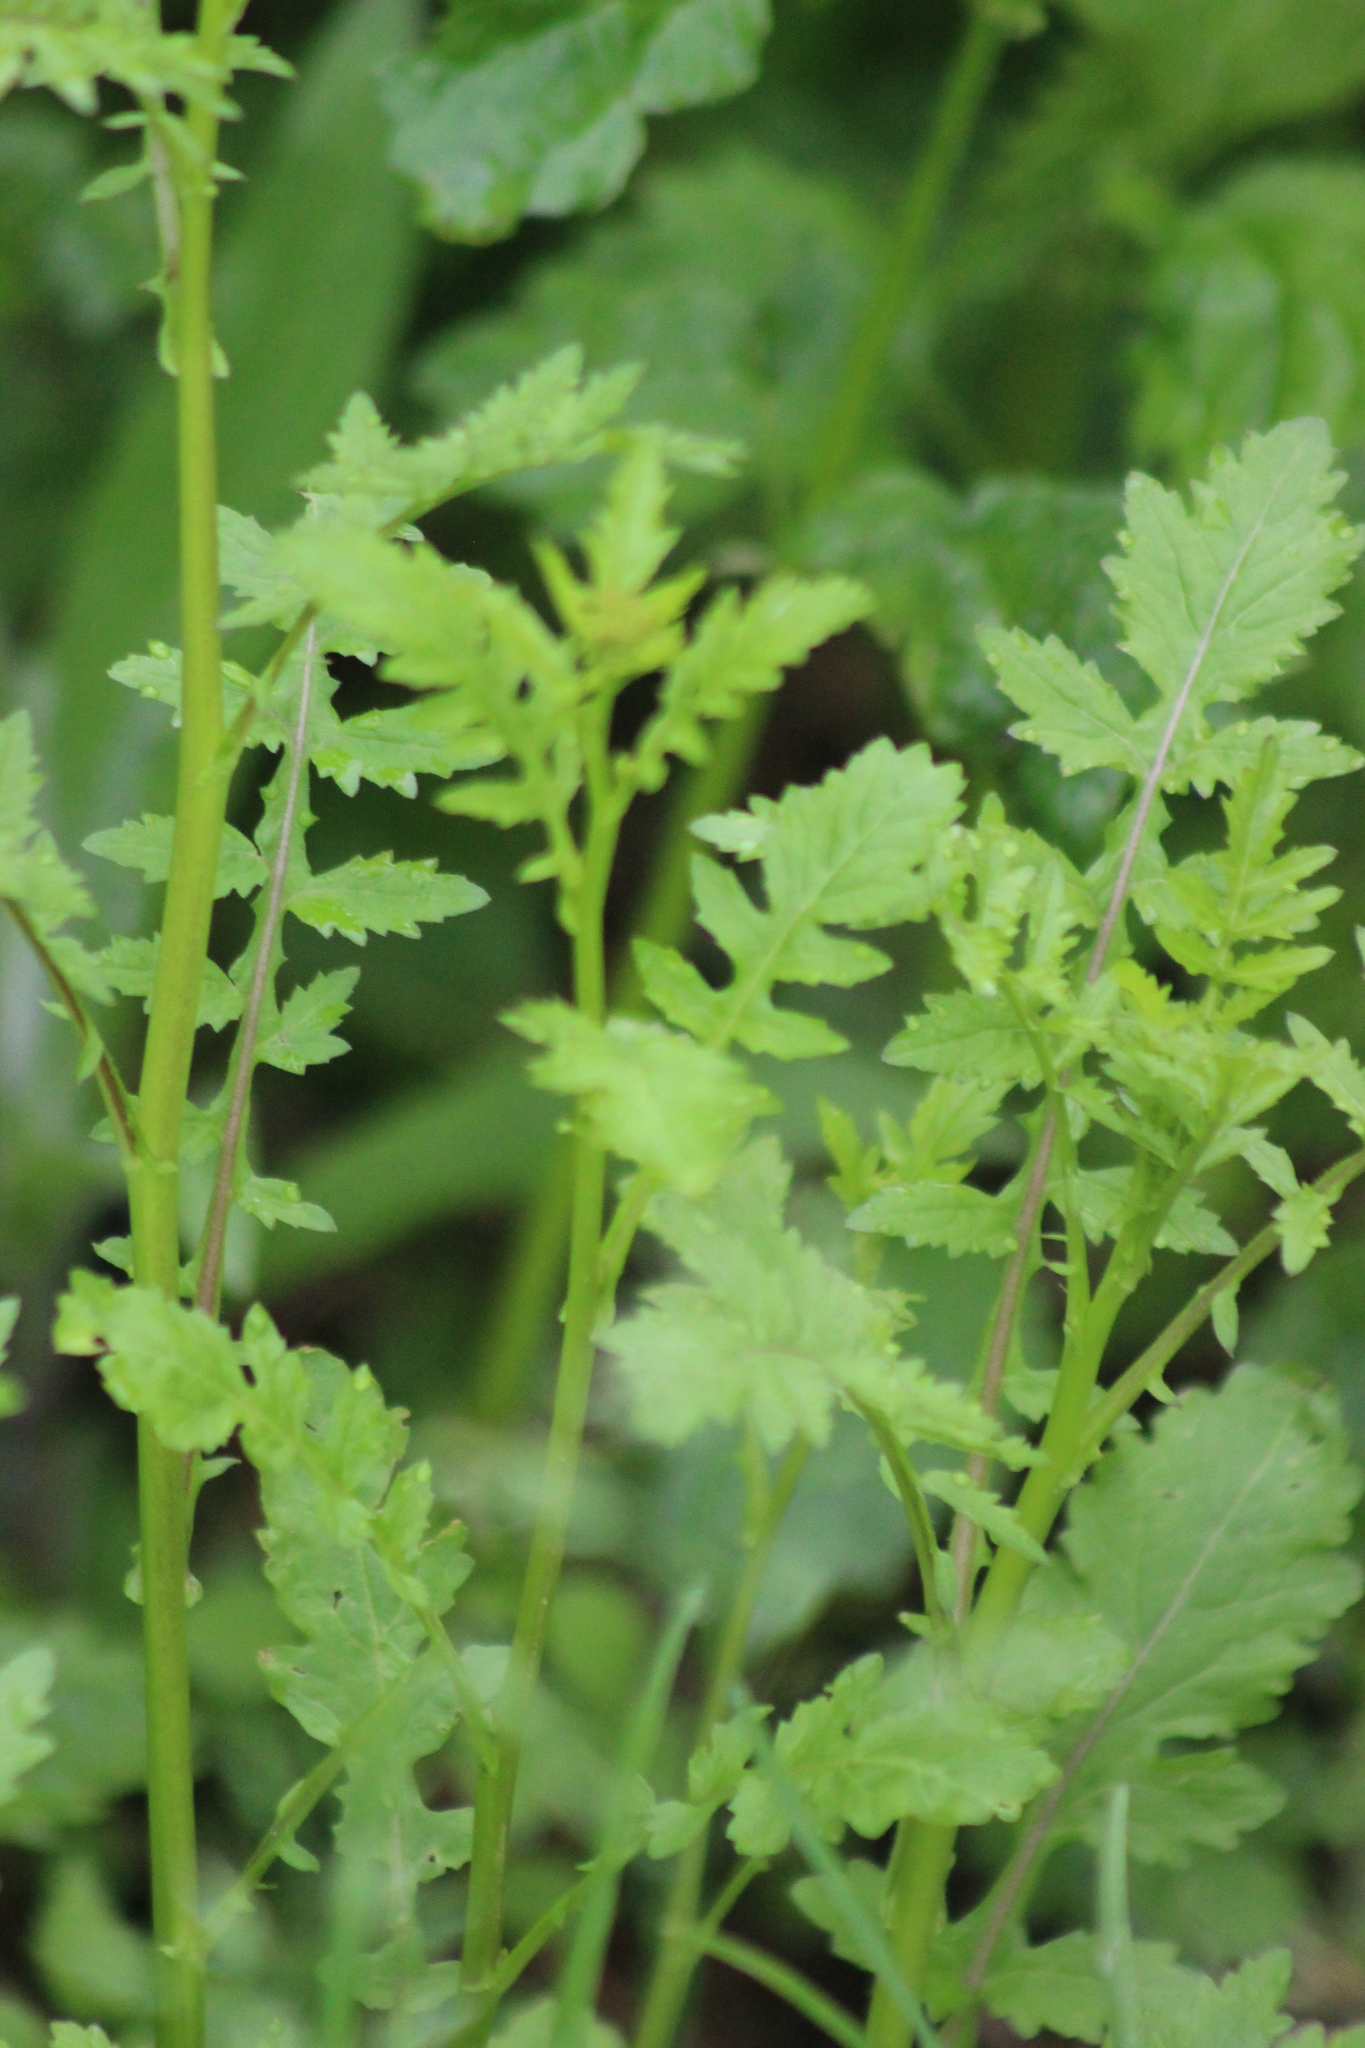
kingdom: Plantae
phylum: Tracheophyta
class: Magnoliopsida
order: Brassicales
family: Brassicaceae
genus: Rorippa
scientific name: Rorippa palustris
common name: Marsh yellow-cress
